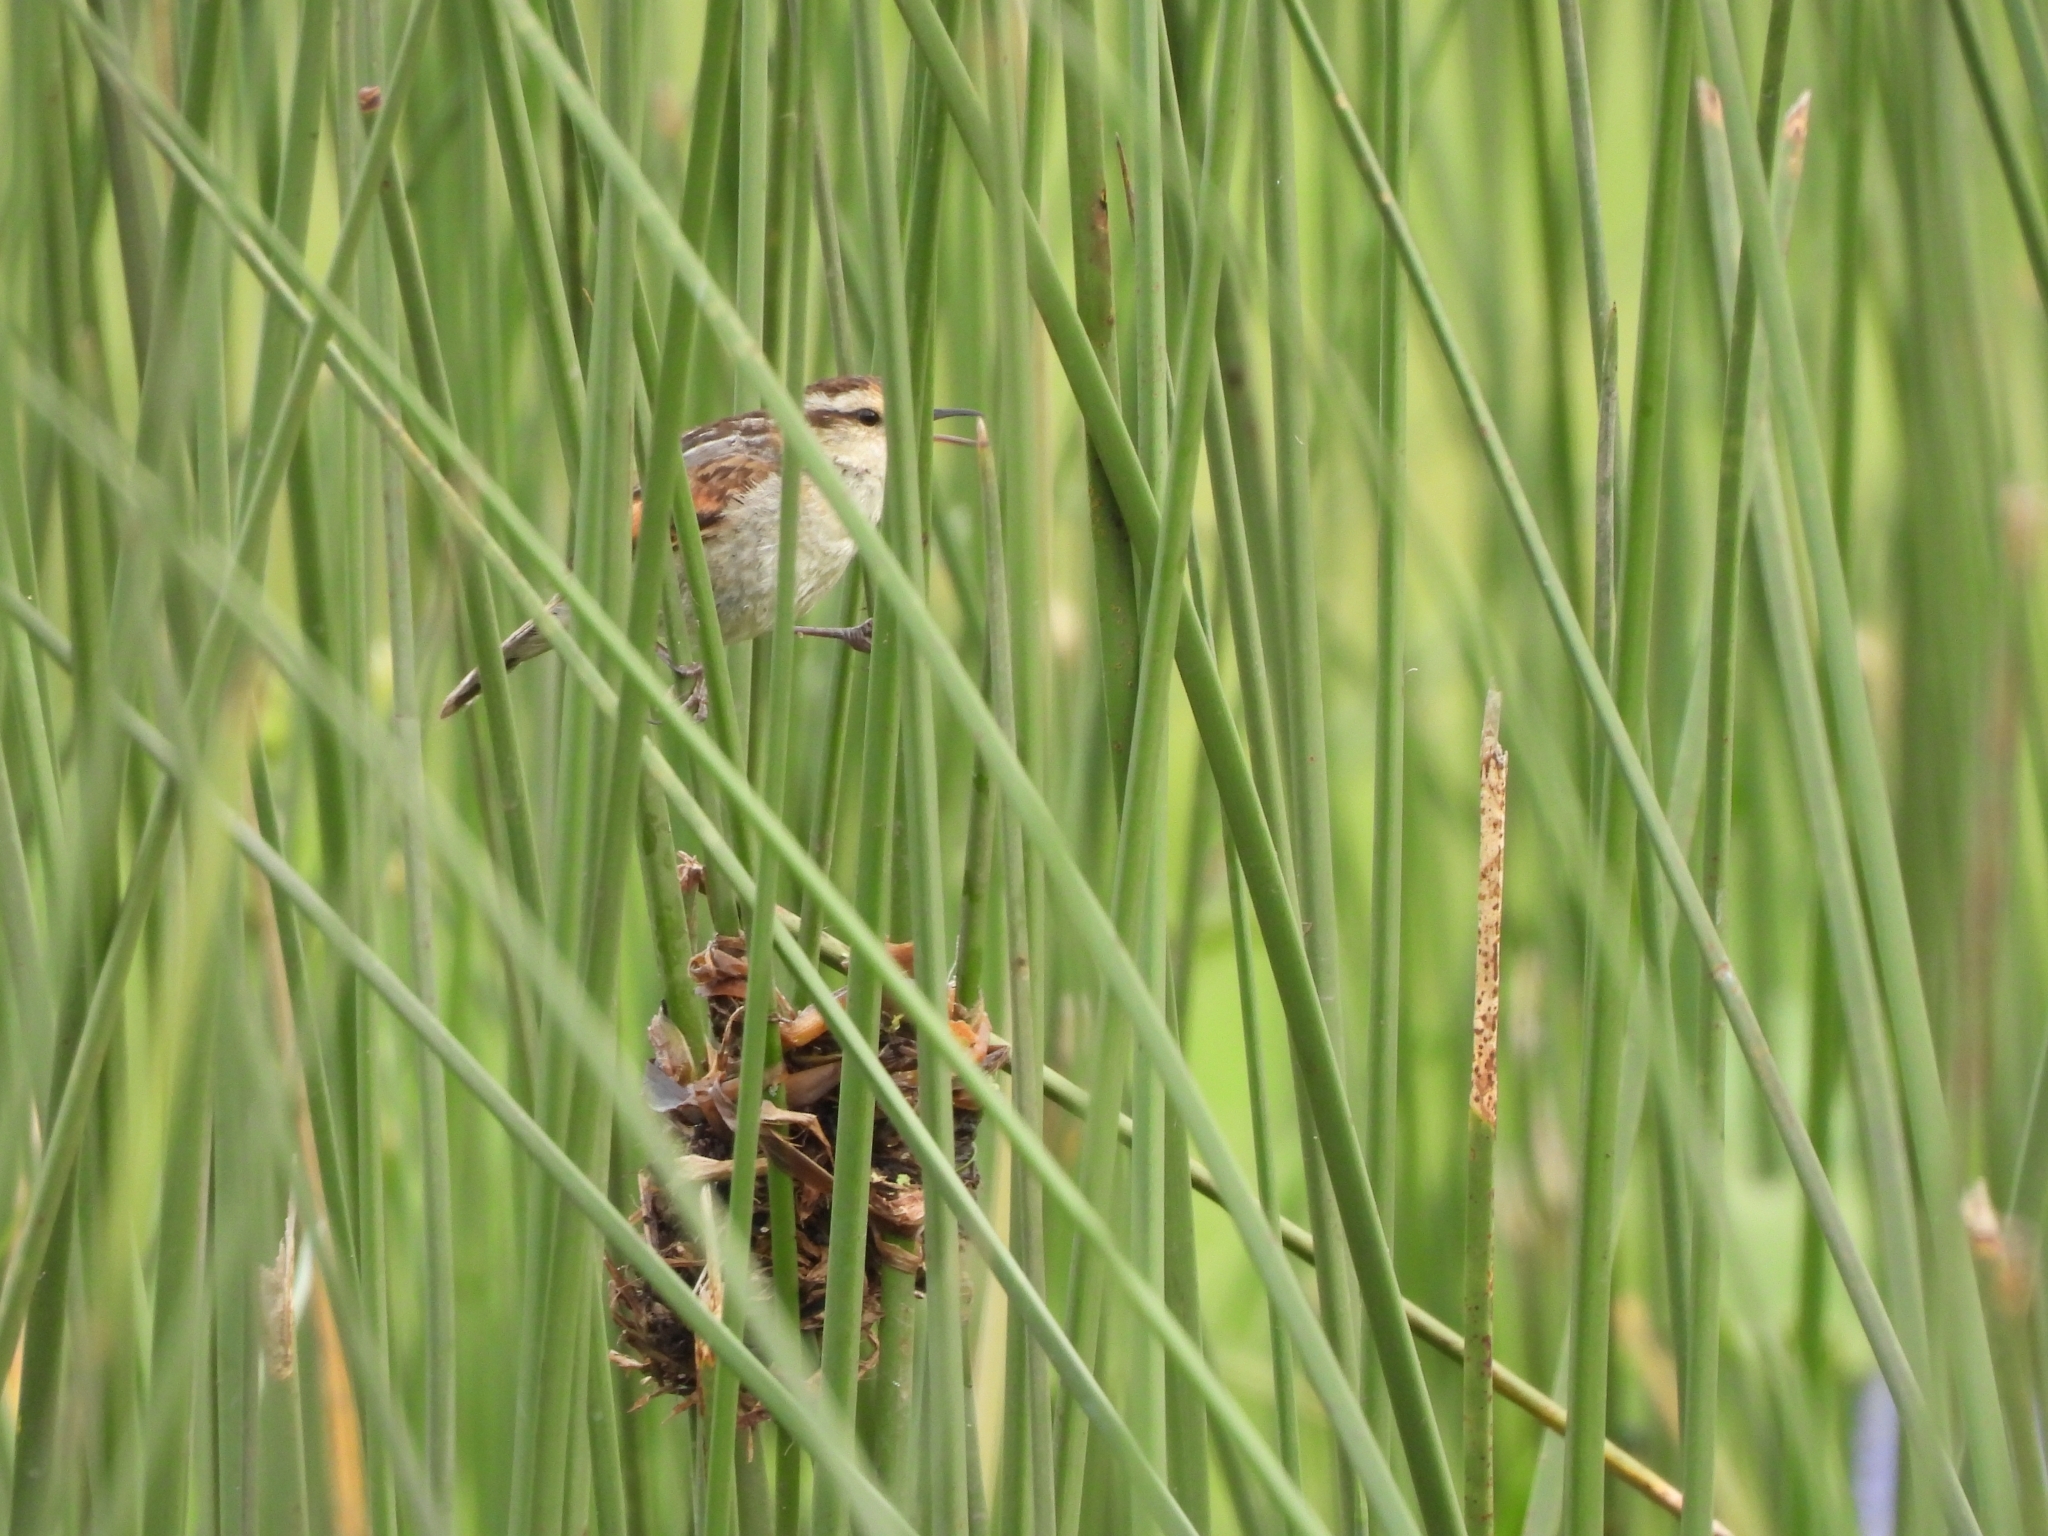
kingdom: Animalia
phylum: Chordata
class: Aves
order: Passeriformes
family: Furnariidae
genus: Phleocryptes
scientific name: Phleocryptes melanops
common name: Wren-like rushbird
